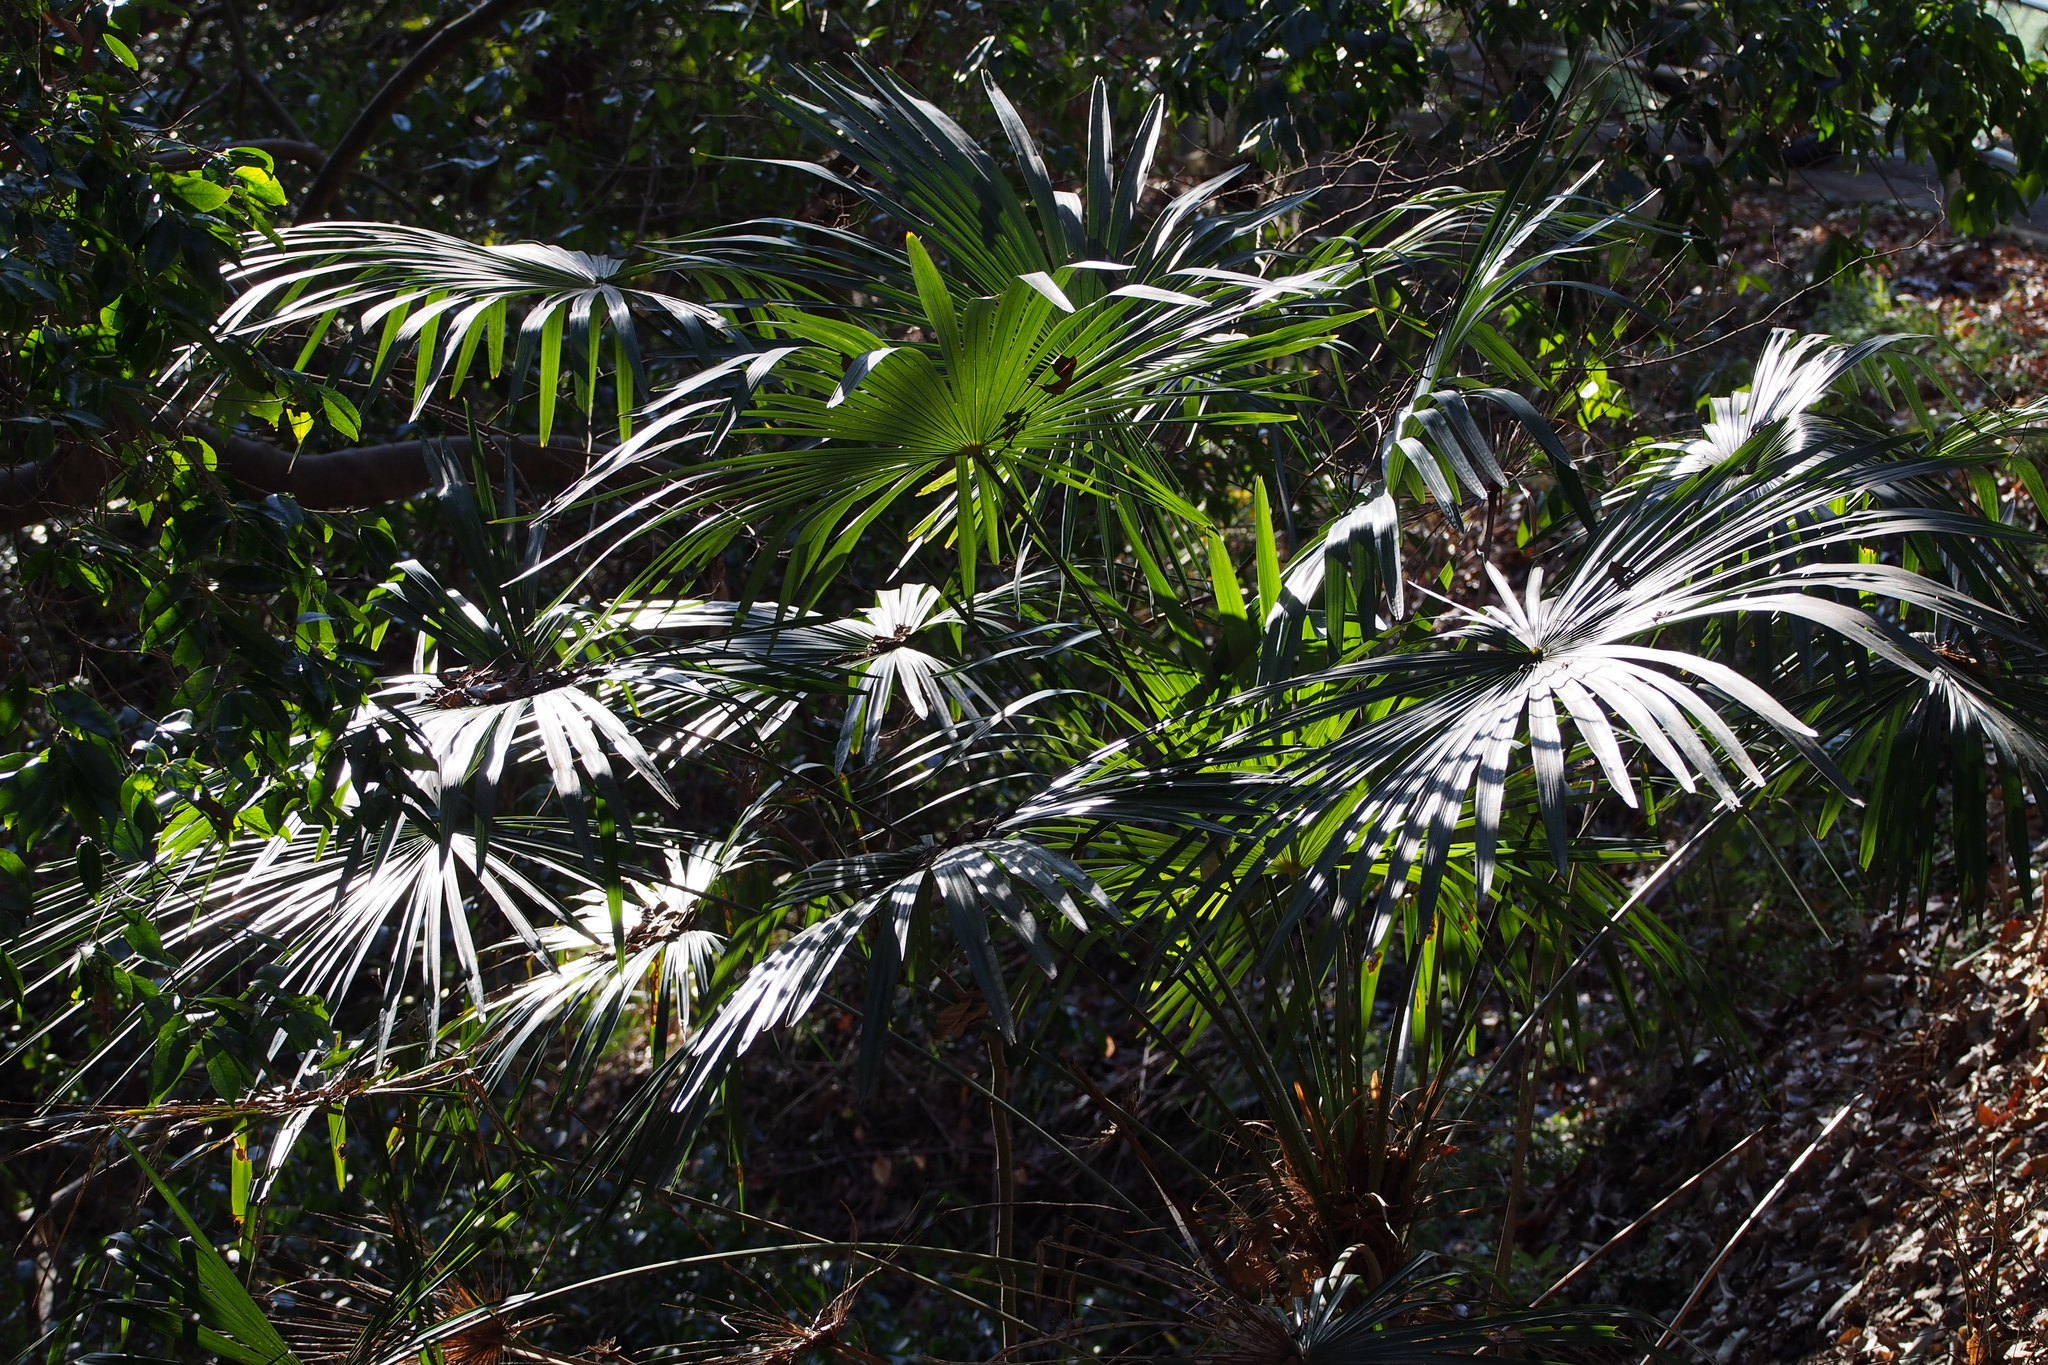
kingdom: Plantae
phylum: Tracheophyta
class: Liliopsida
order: Arecales
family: Arecaceae
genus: Trachycarpus
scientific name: Trachycarpus fortunei
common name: Chusan palm
